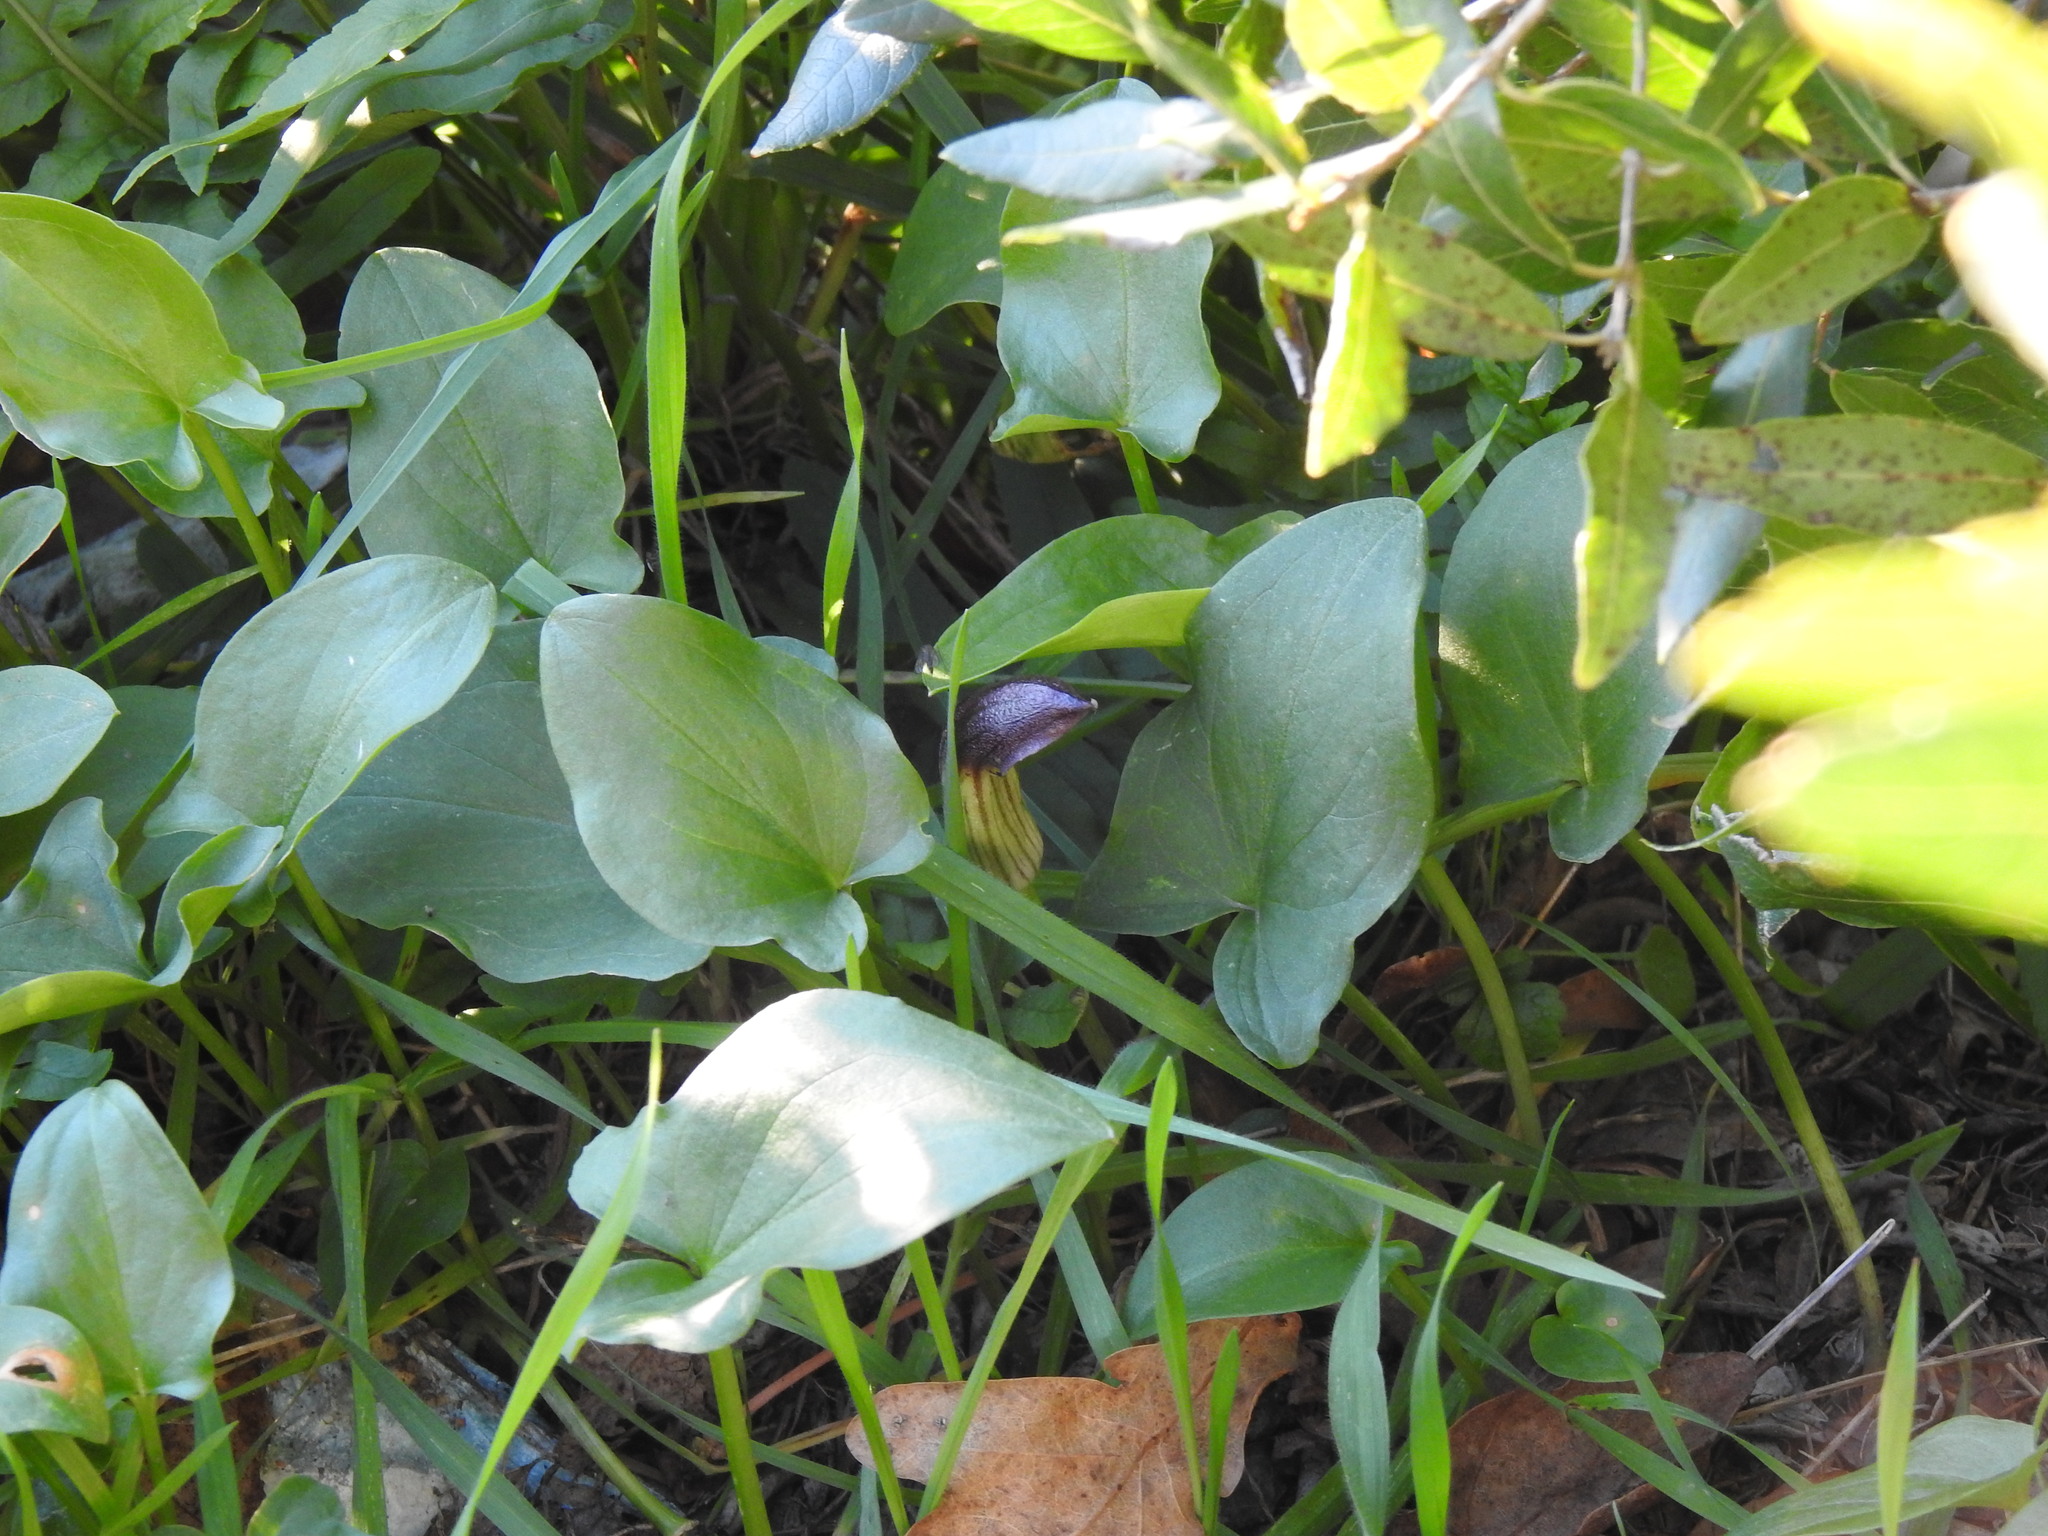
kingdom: Plantae
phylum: Tracheophyta
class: Liliopsida
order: Alismatales
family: Araceae
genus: Arisarum
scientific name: Arisarum simorrhinum
